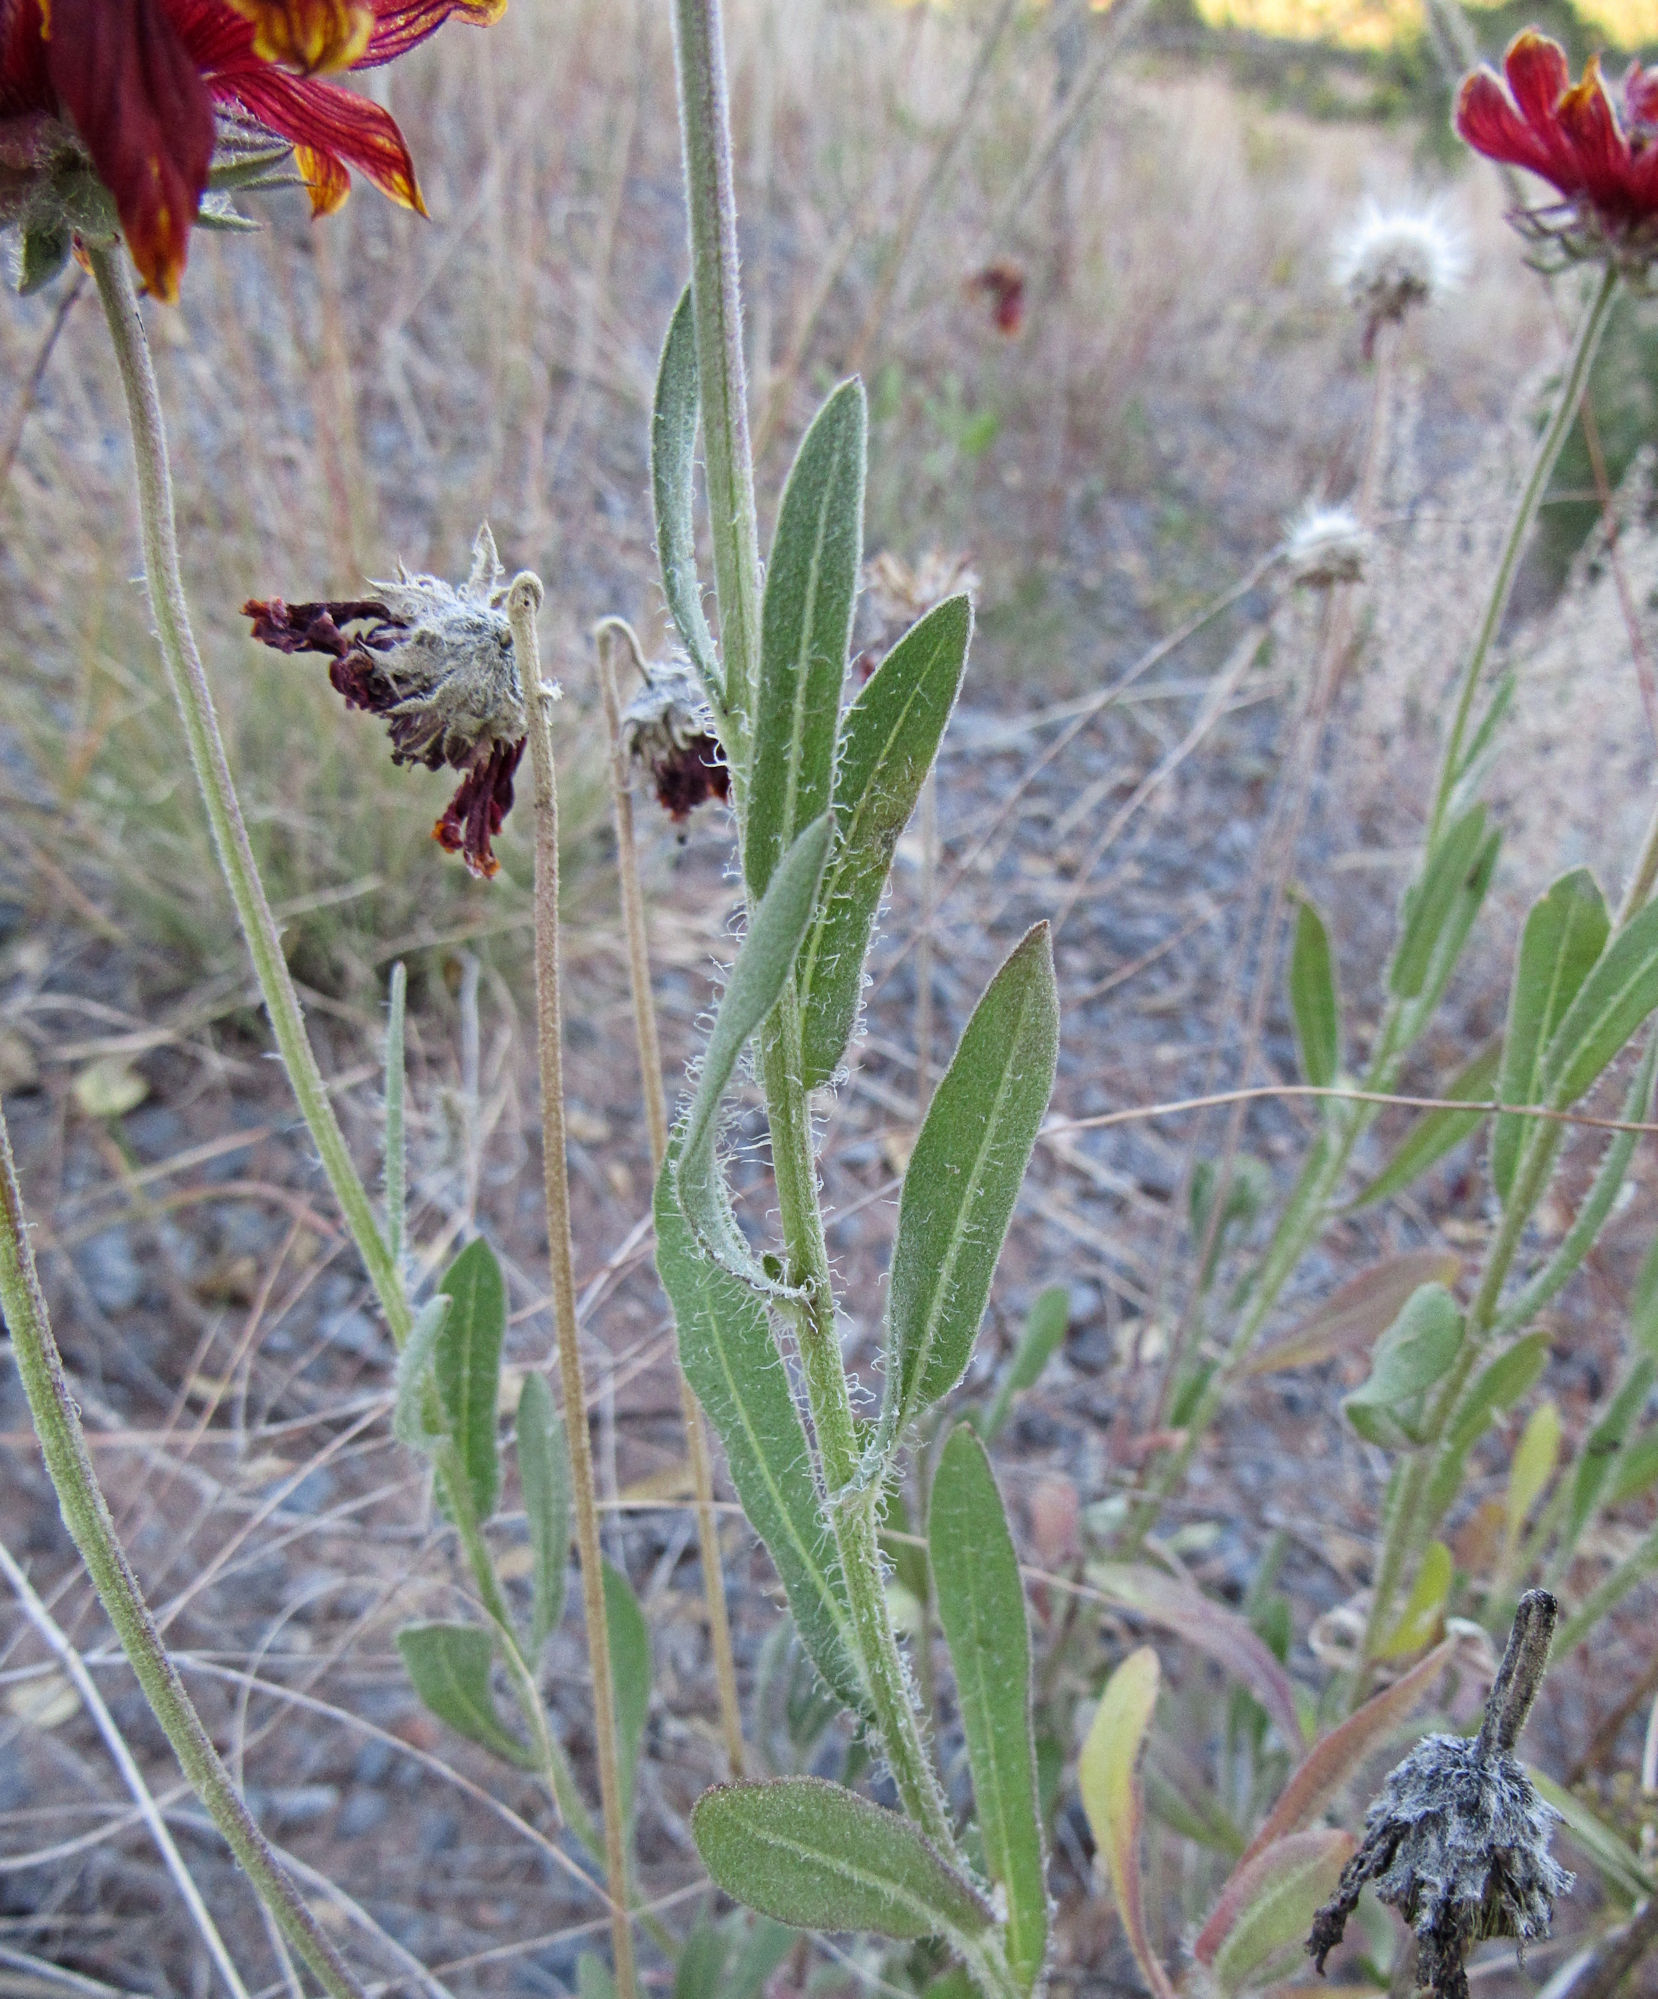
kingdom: Plantae
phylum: Tracheophyta
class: Magnoliopsida
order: Asterales
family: Asteraceae
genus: Gaillardia
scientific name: Gaillardia pulchella
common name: Firewheel
